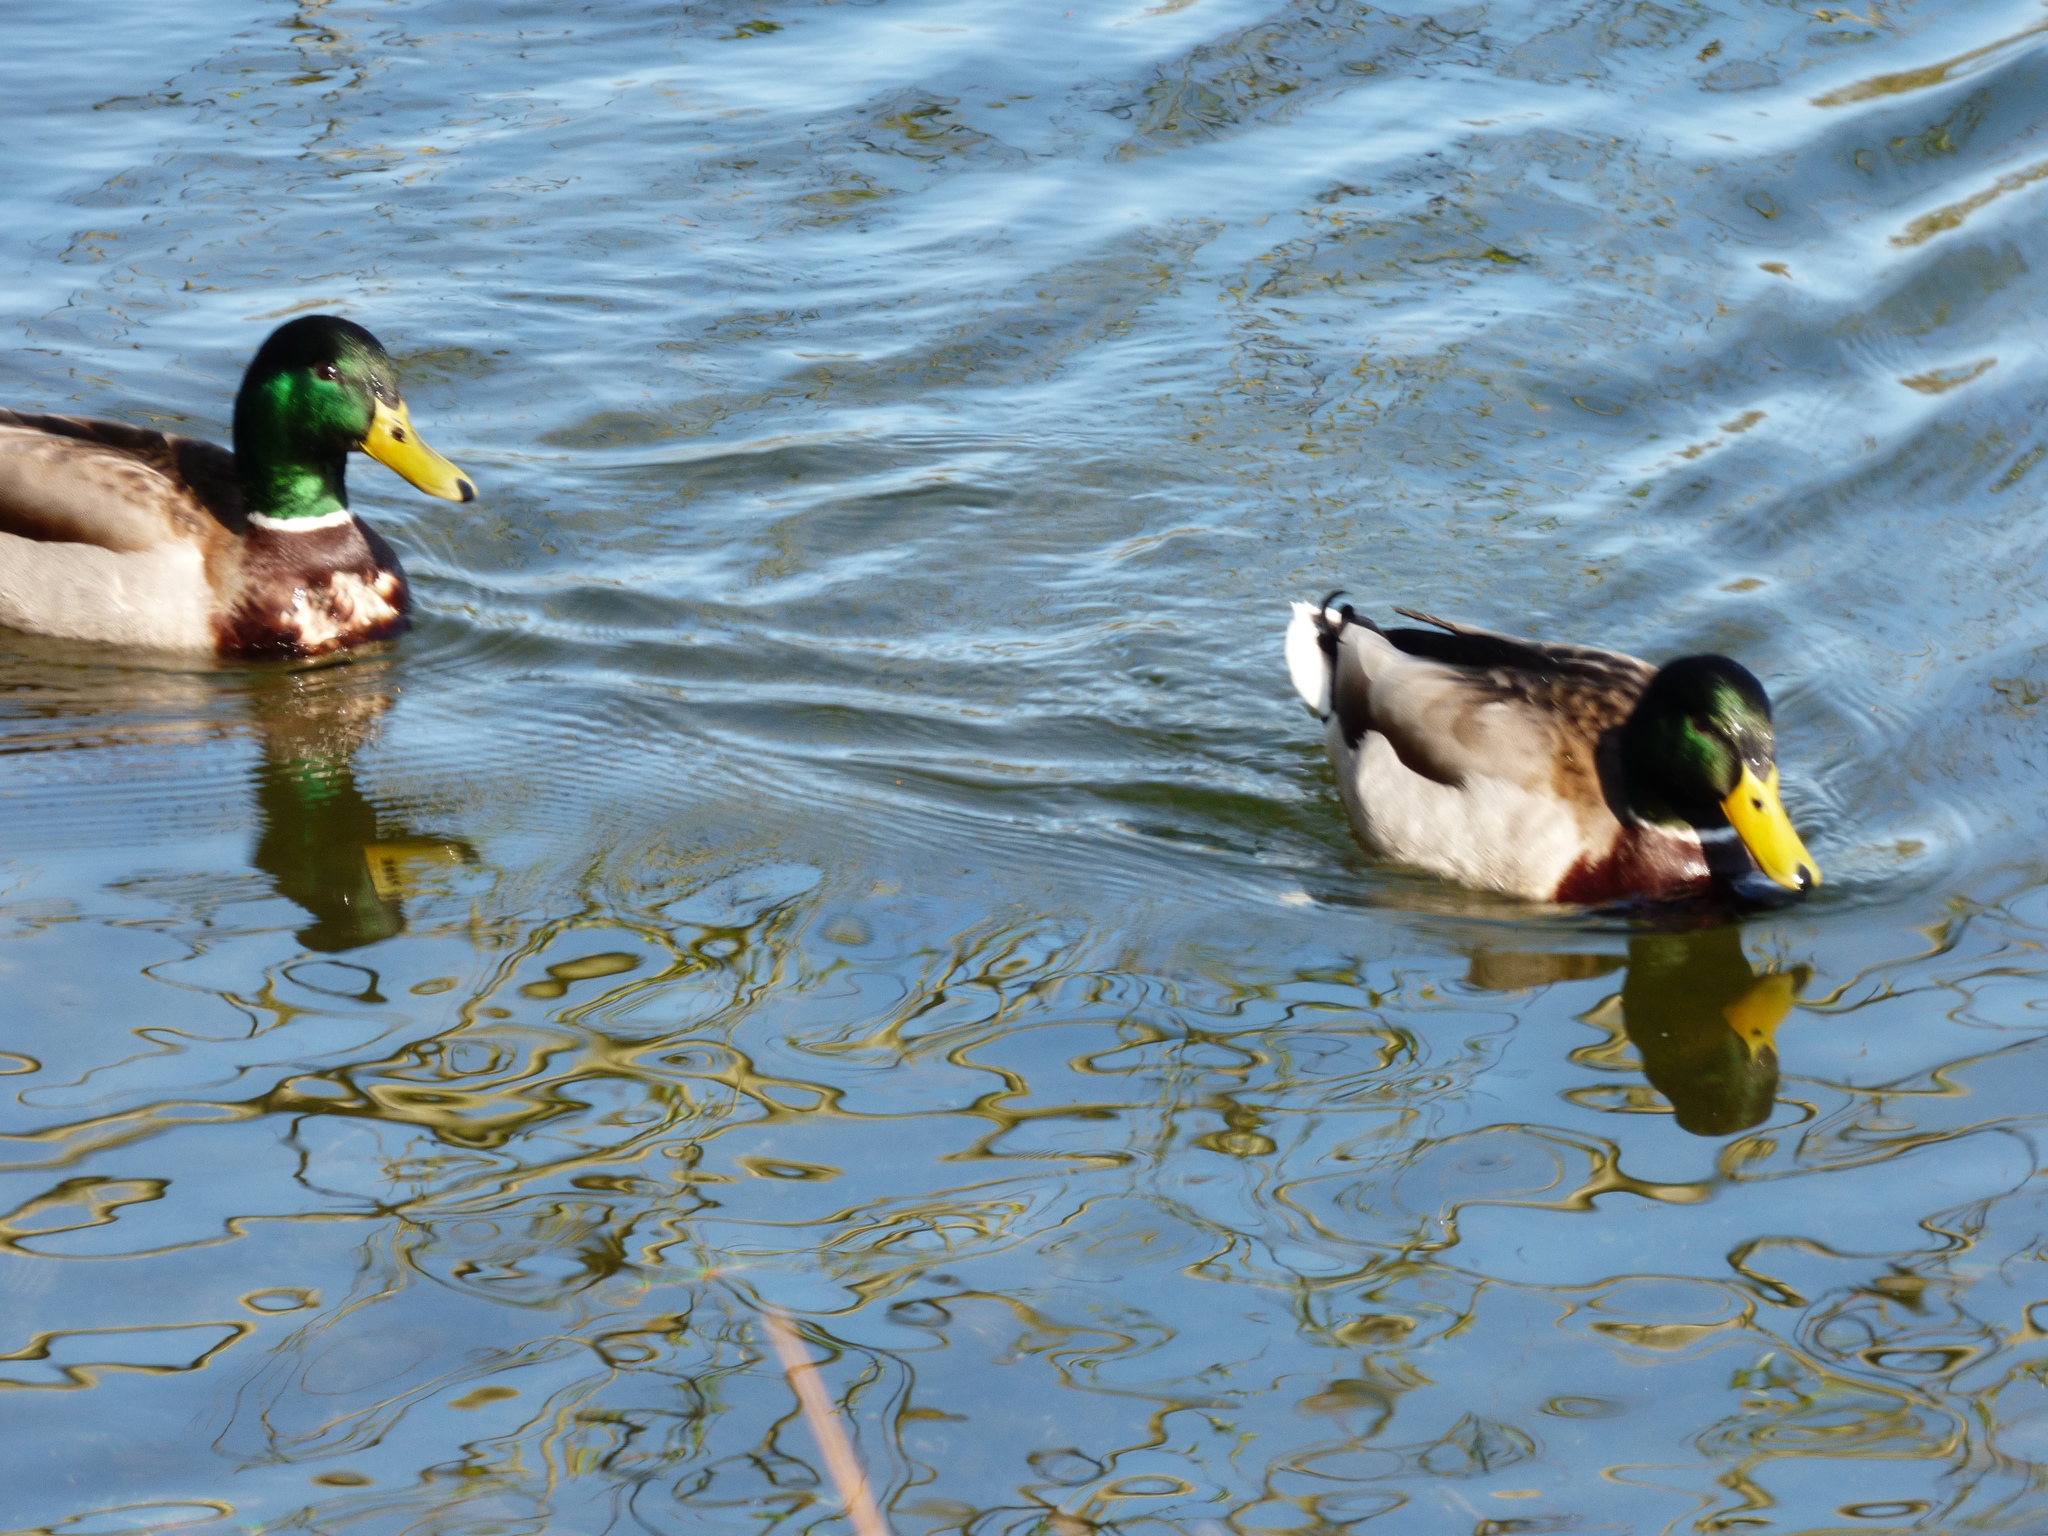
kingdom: Animalia
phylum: Chordata
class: Aves
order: Anseriformes
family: Anatidae
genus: Anas
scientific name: Anas platyrhynchos
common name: Mallard
